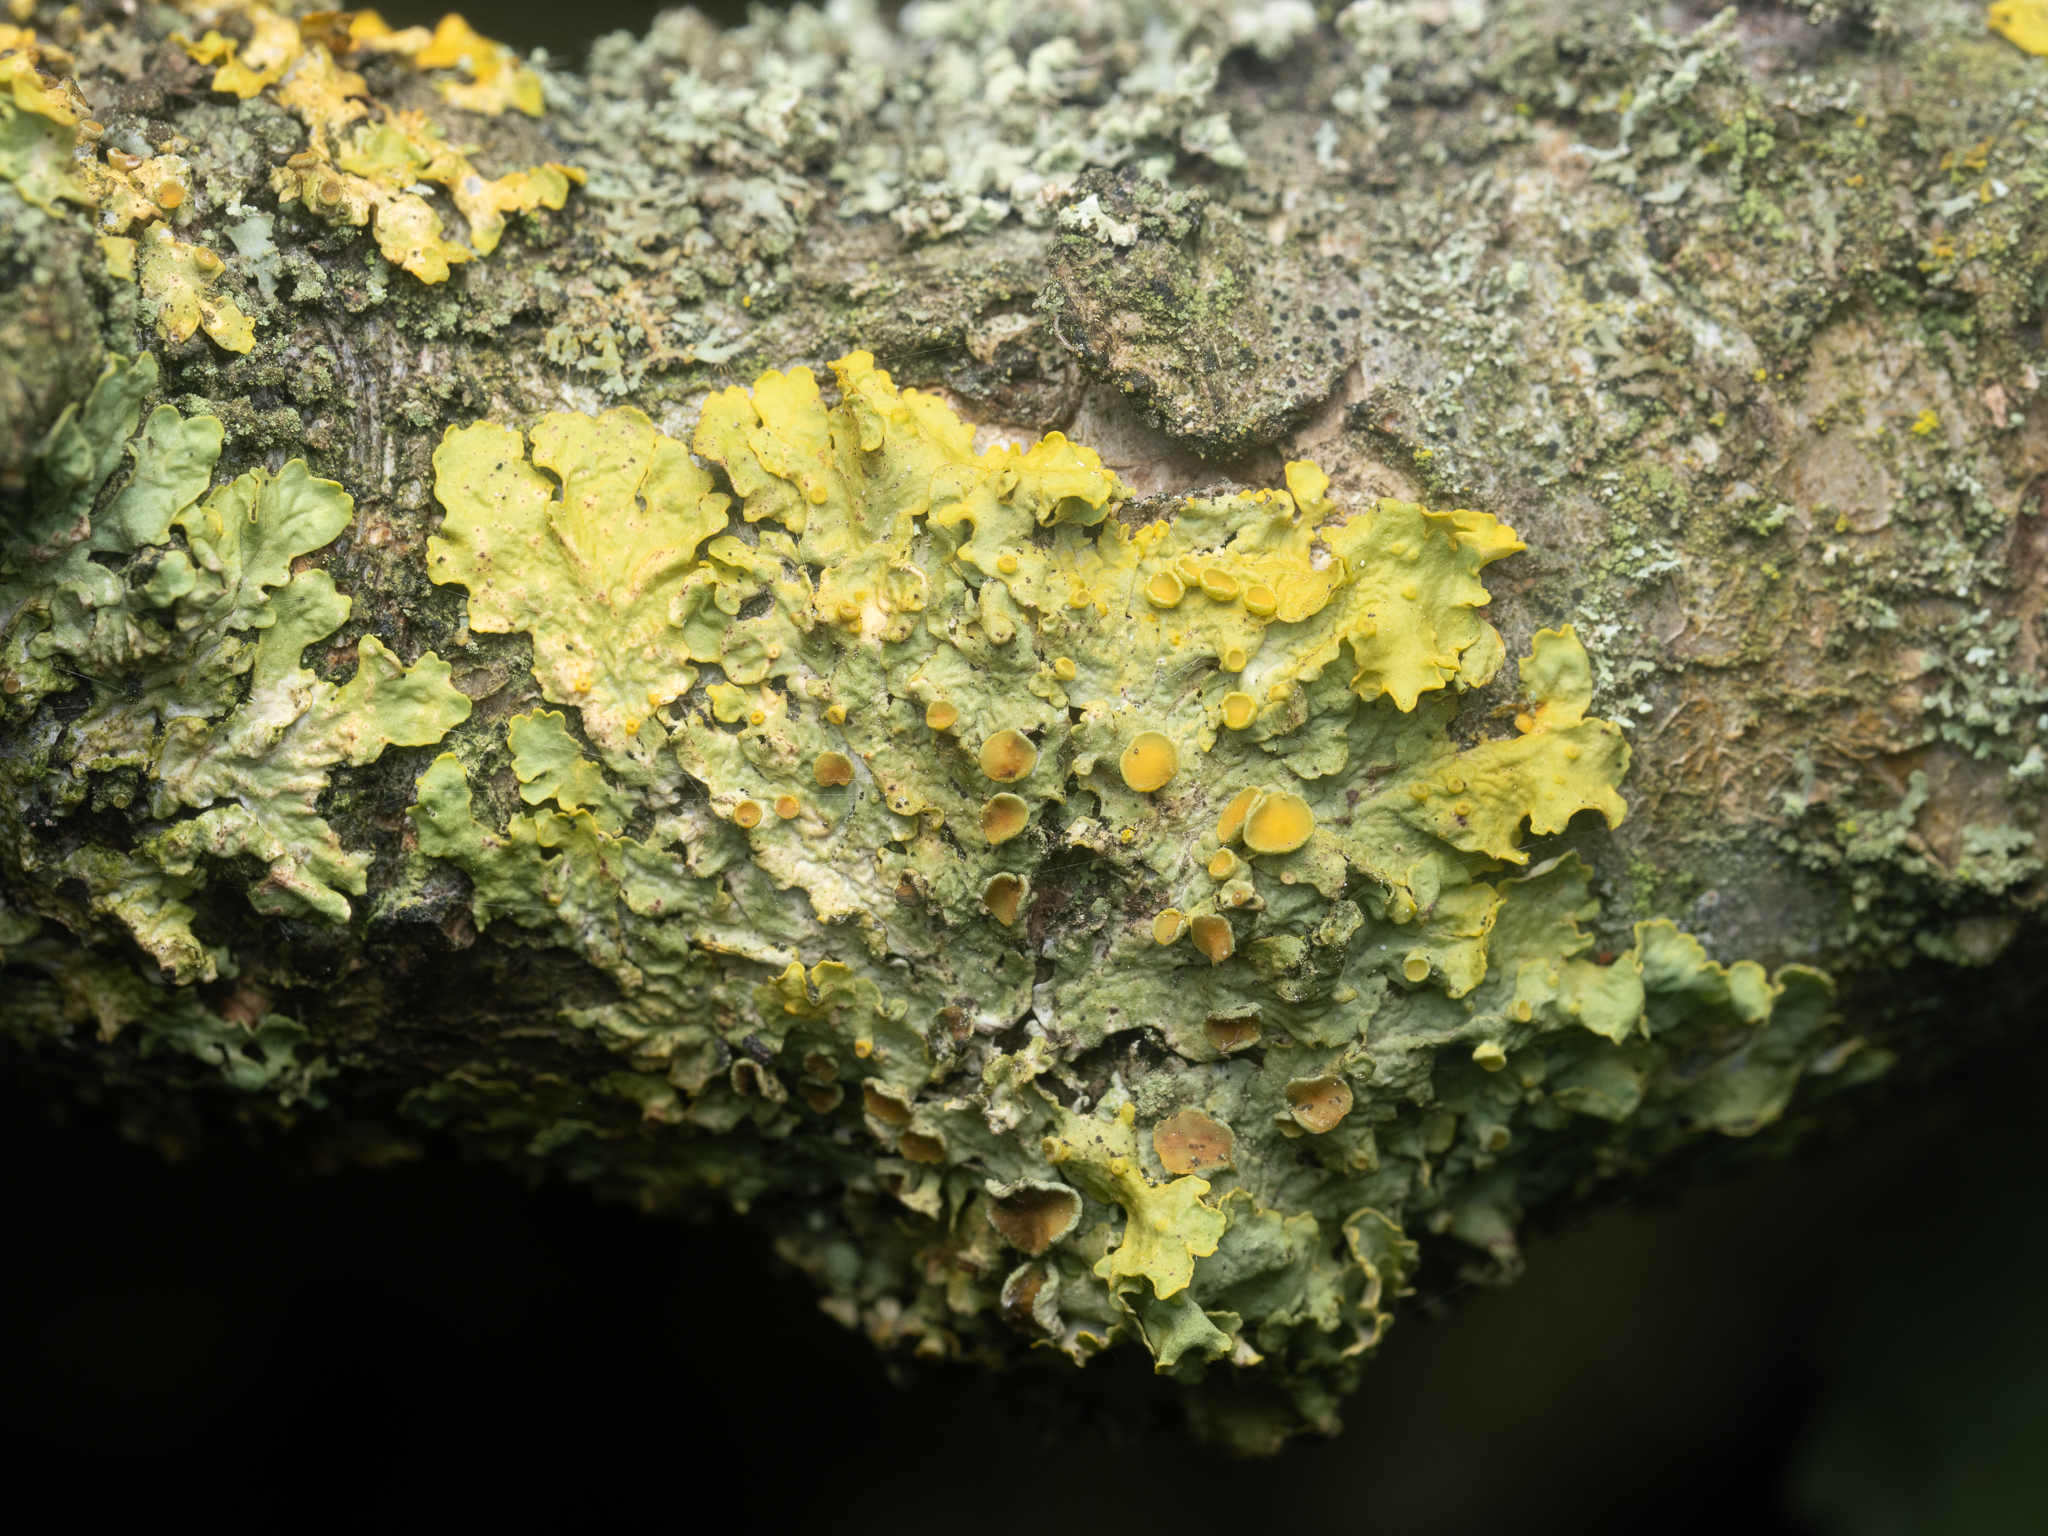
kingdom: Fungi
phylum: Ascomycota
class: Lecanoromycetes
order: Teloschistales
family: Teloschistaceae
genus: Xanthoria
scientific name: Xanthoria parietina
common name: Common orange lichen
